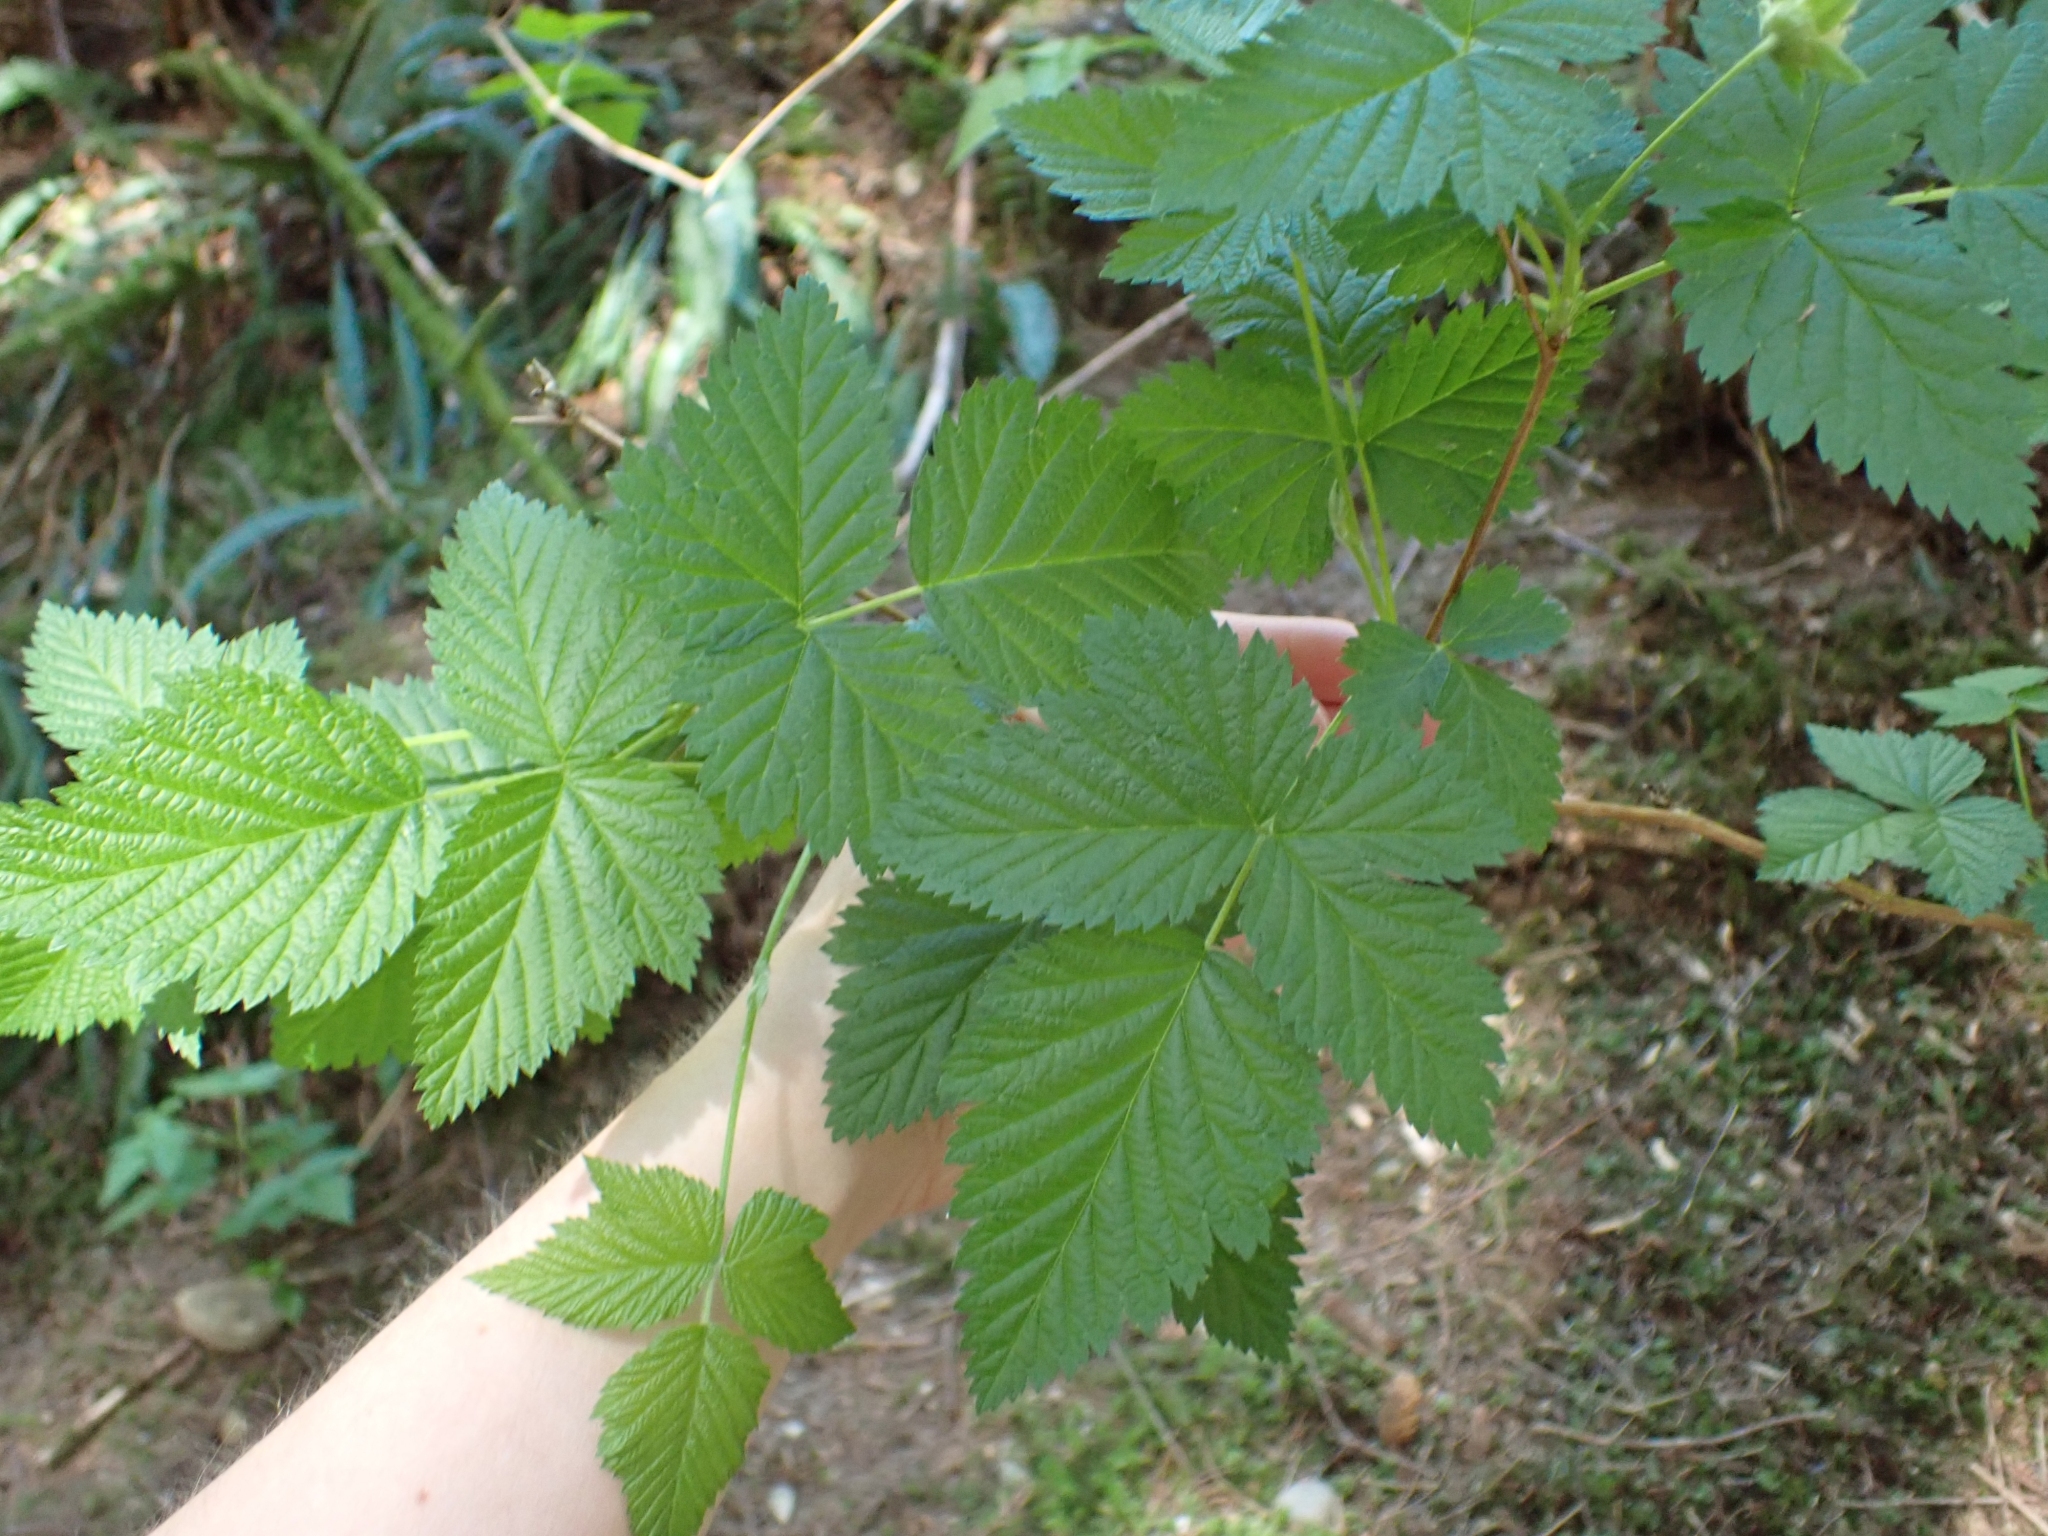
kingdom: Plantae
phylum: Tracheophyta
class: Magnoliopsida
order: Rosales
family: Rosaceae
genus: Rubus
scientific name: Rubus spectabilis
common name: Salmonberry
